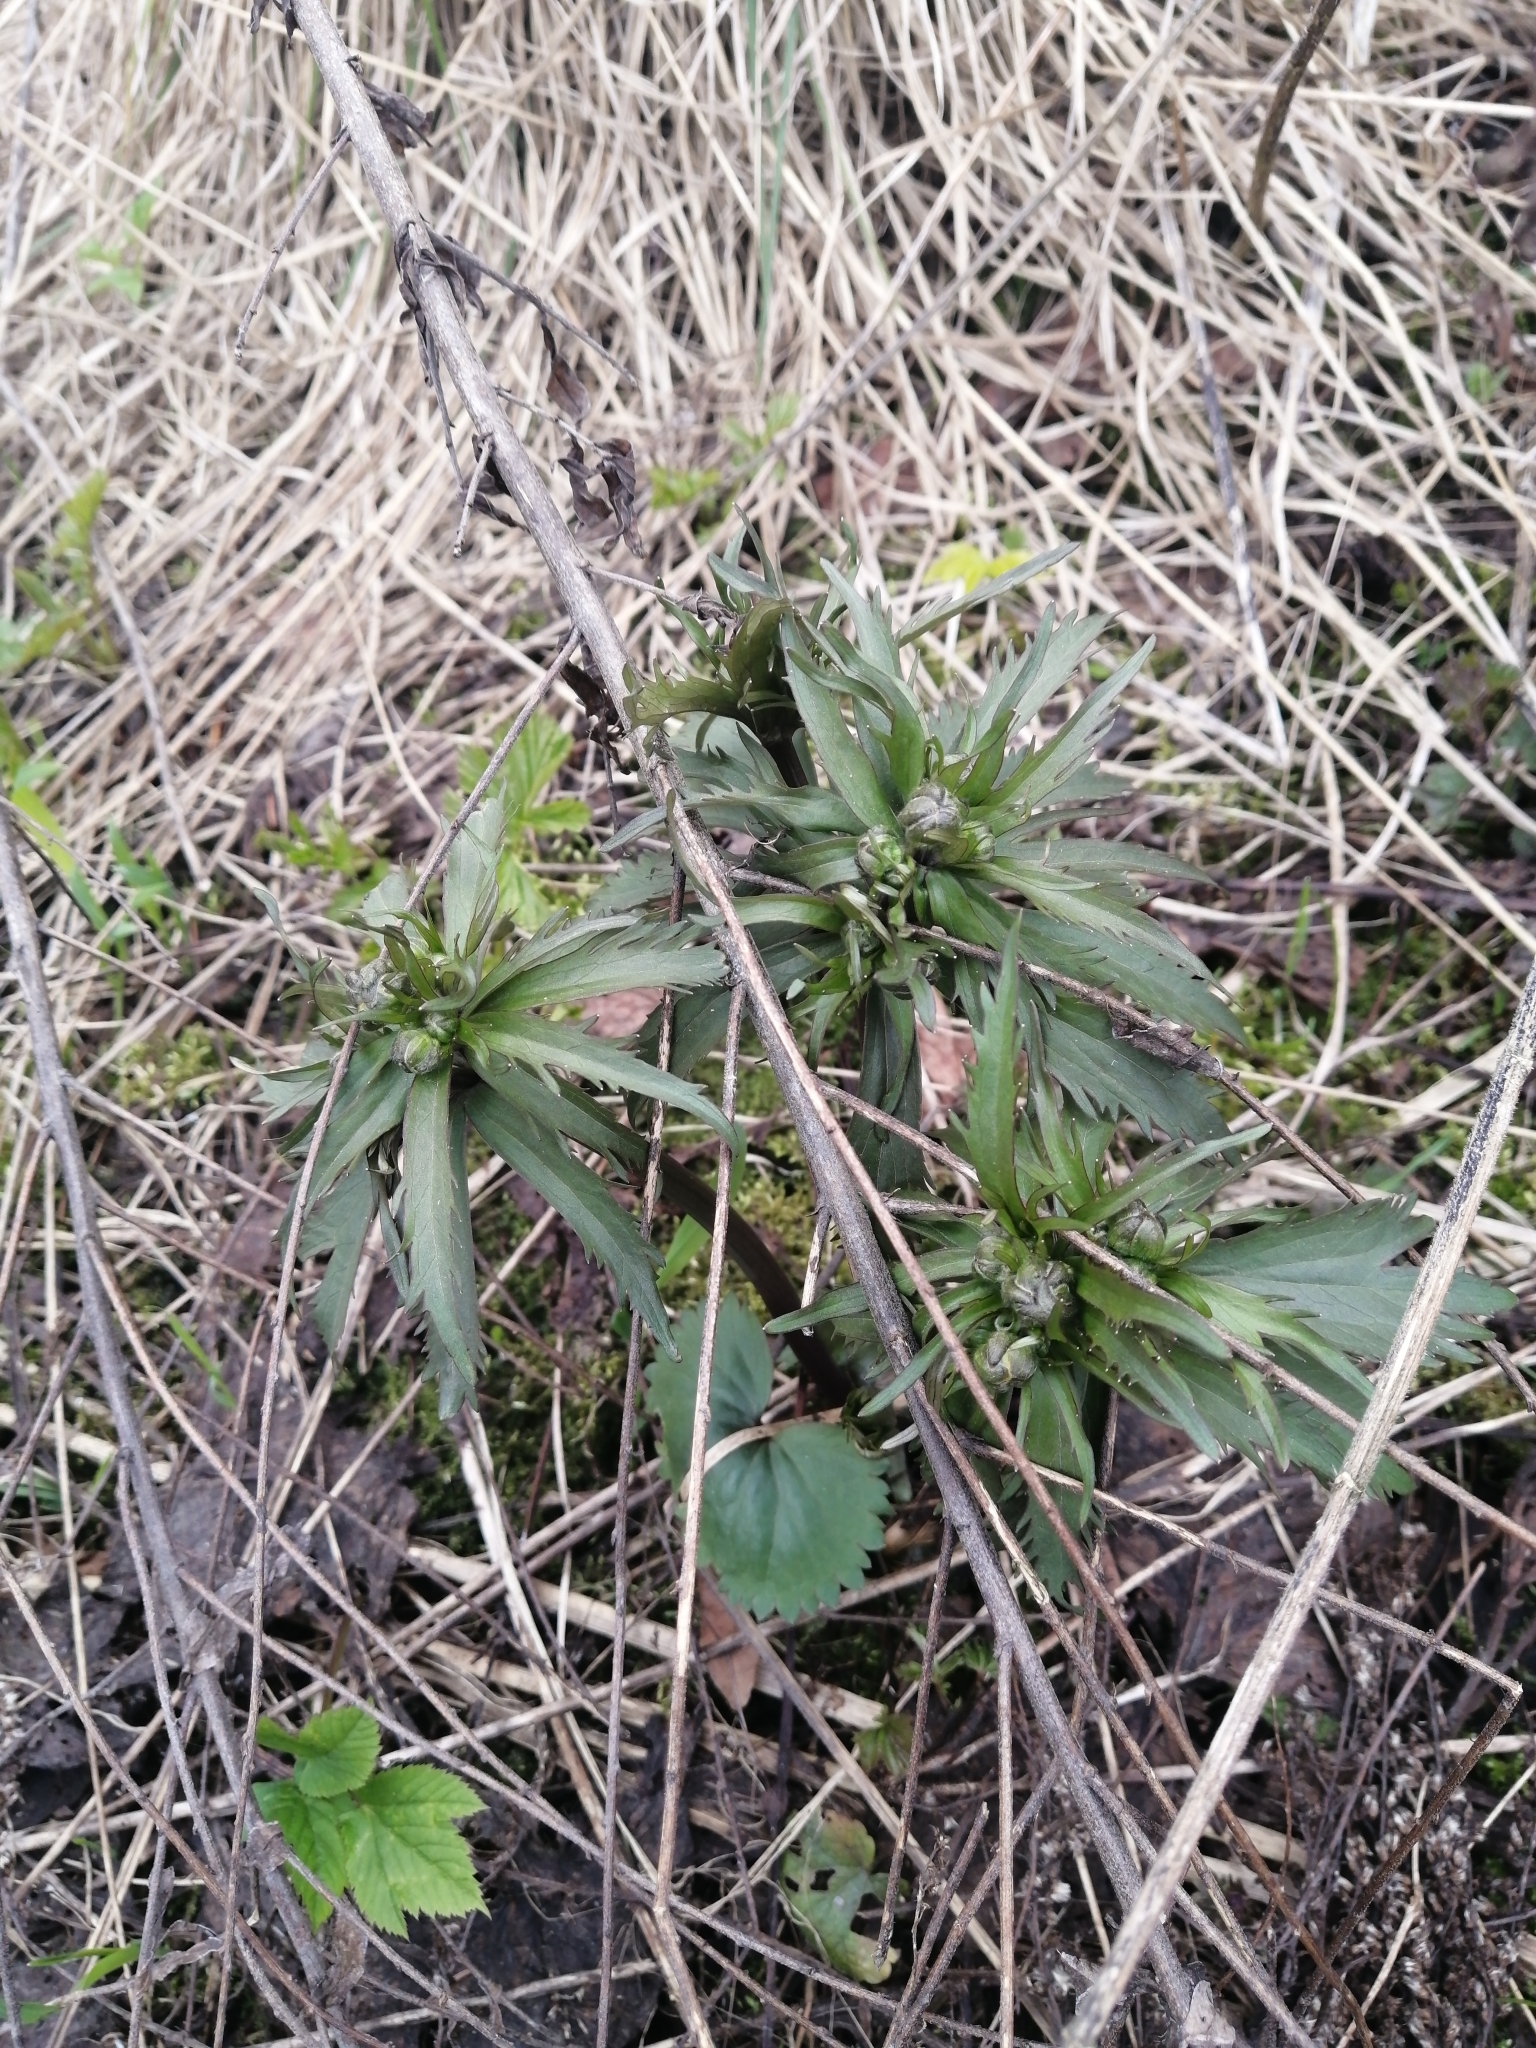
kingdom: Plantae
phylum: Tracheophyta
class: Magnoliopsida
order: Ranunculales
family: Ranunculaceae
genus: Ranunculus
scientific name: Ranunculus cassubicus
